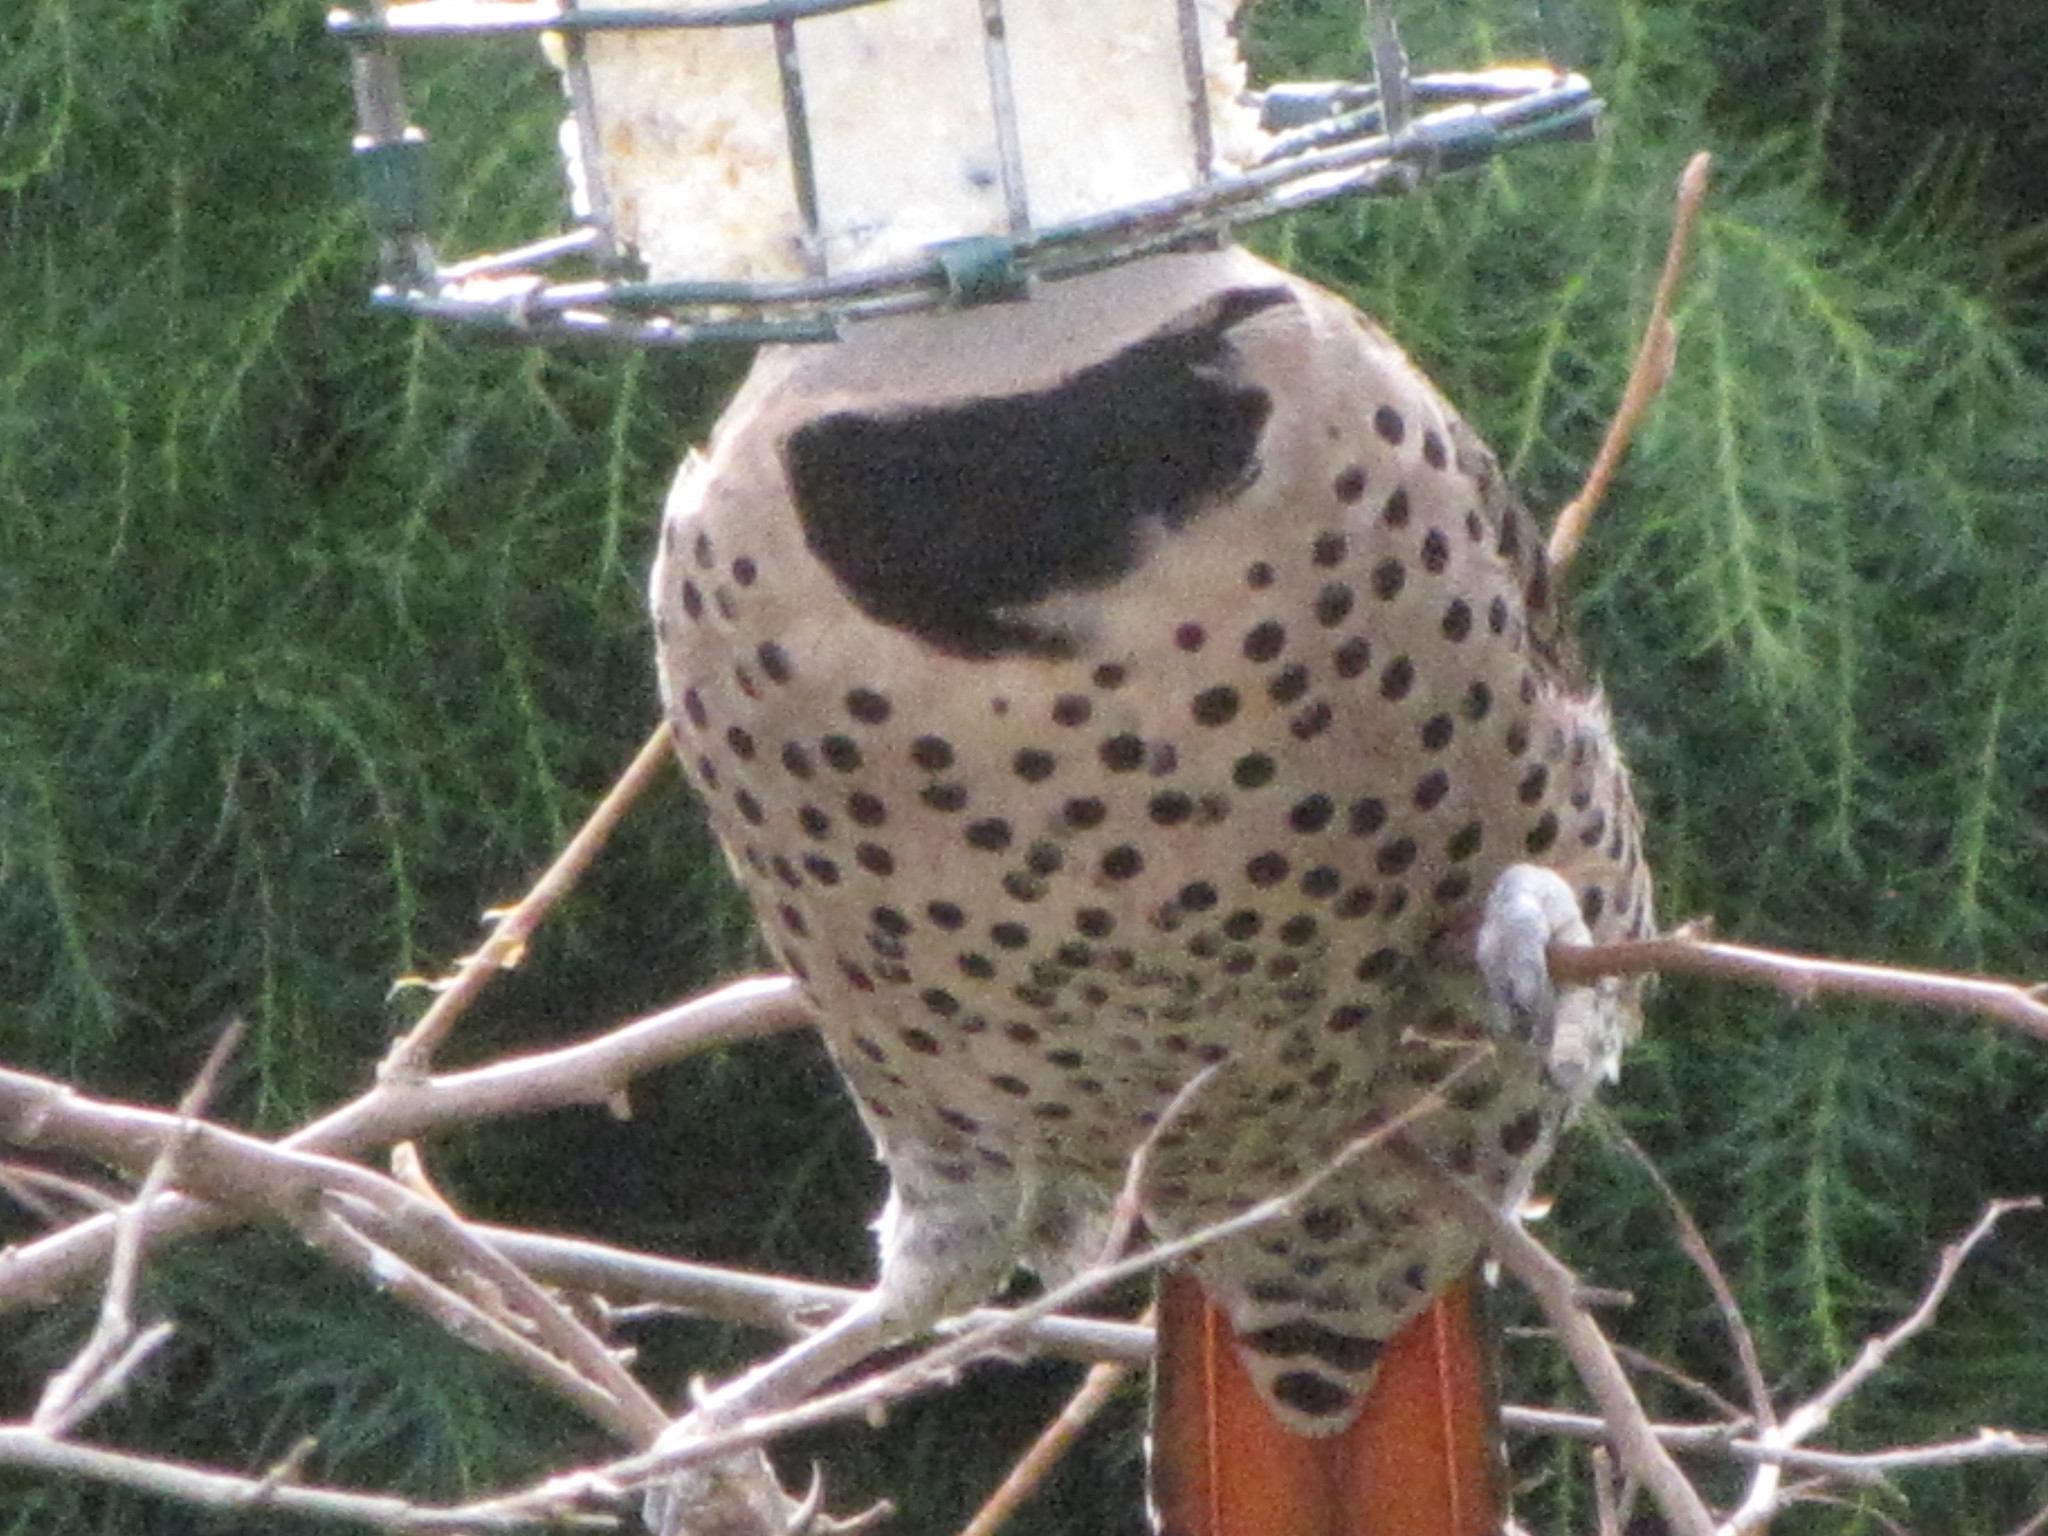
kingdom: Animalia
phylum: Chordata
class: Aves
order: Piciformes
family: Picidae
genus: Colaptes
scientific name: Colaptes auratus
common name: Northern flicker
